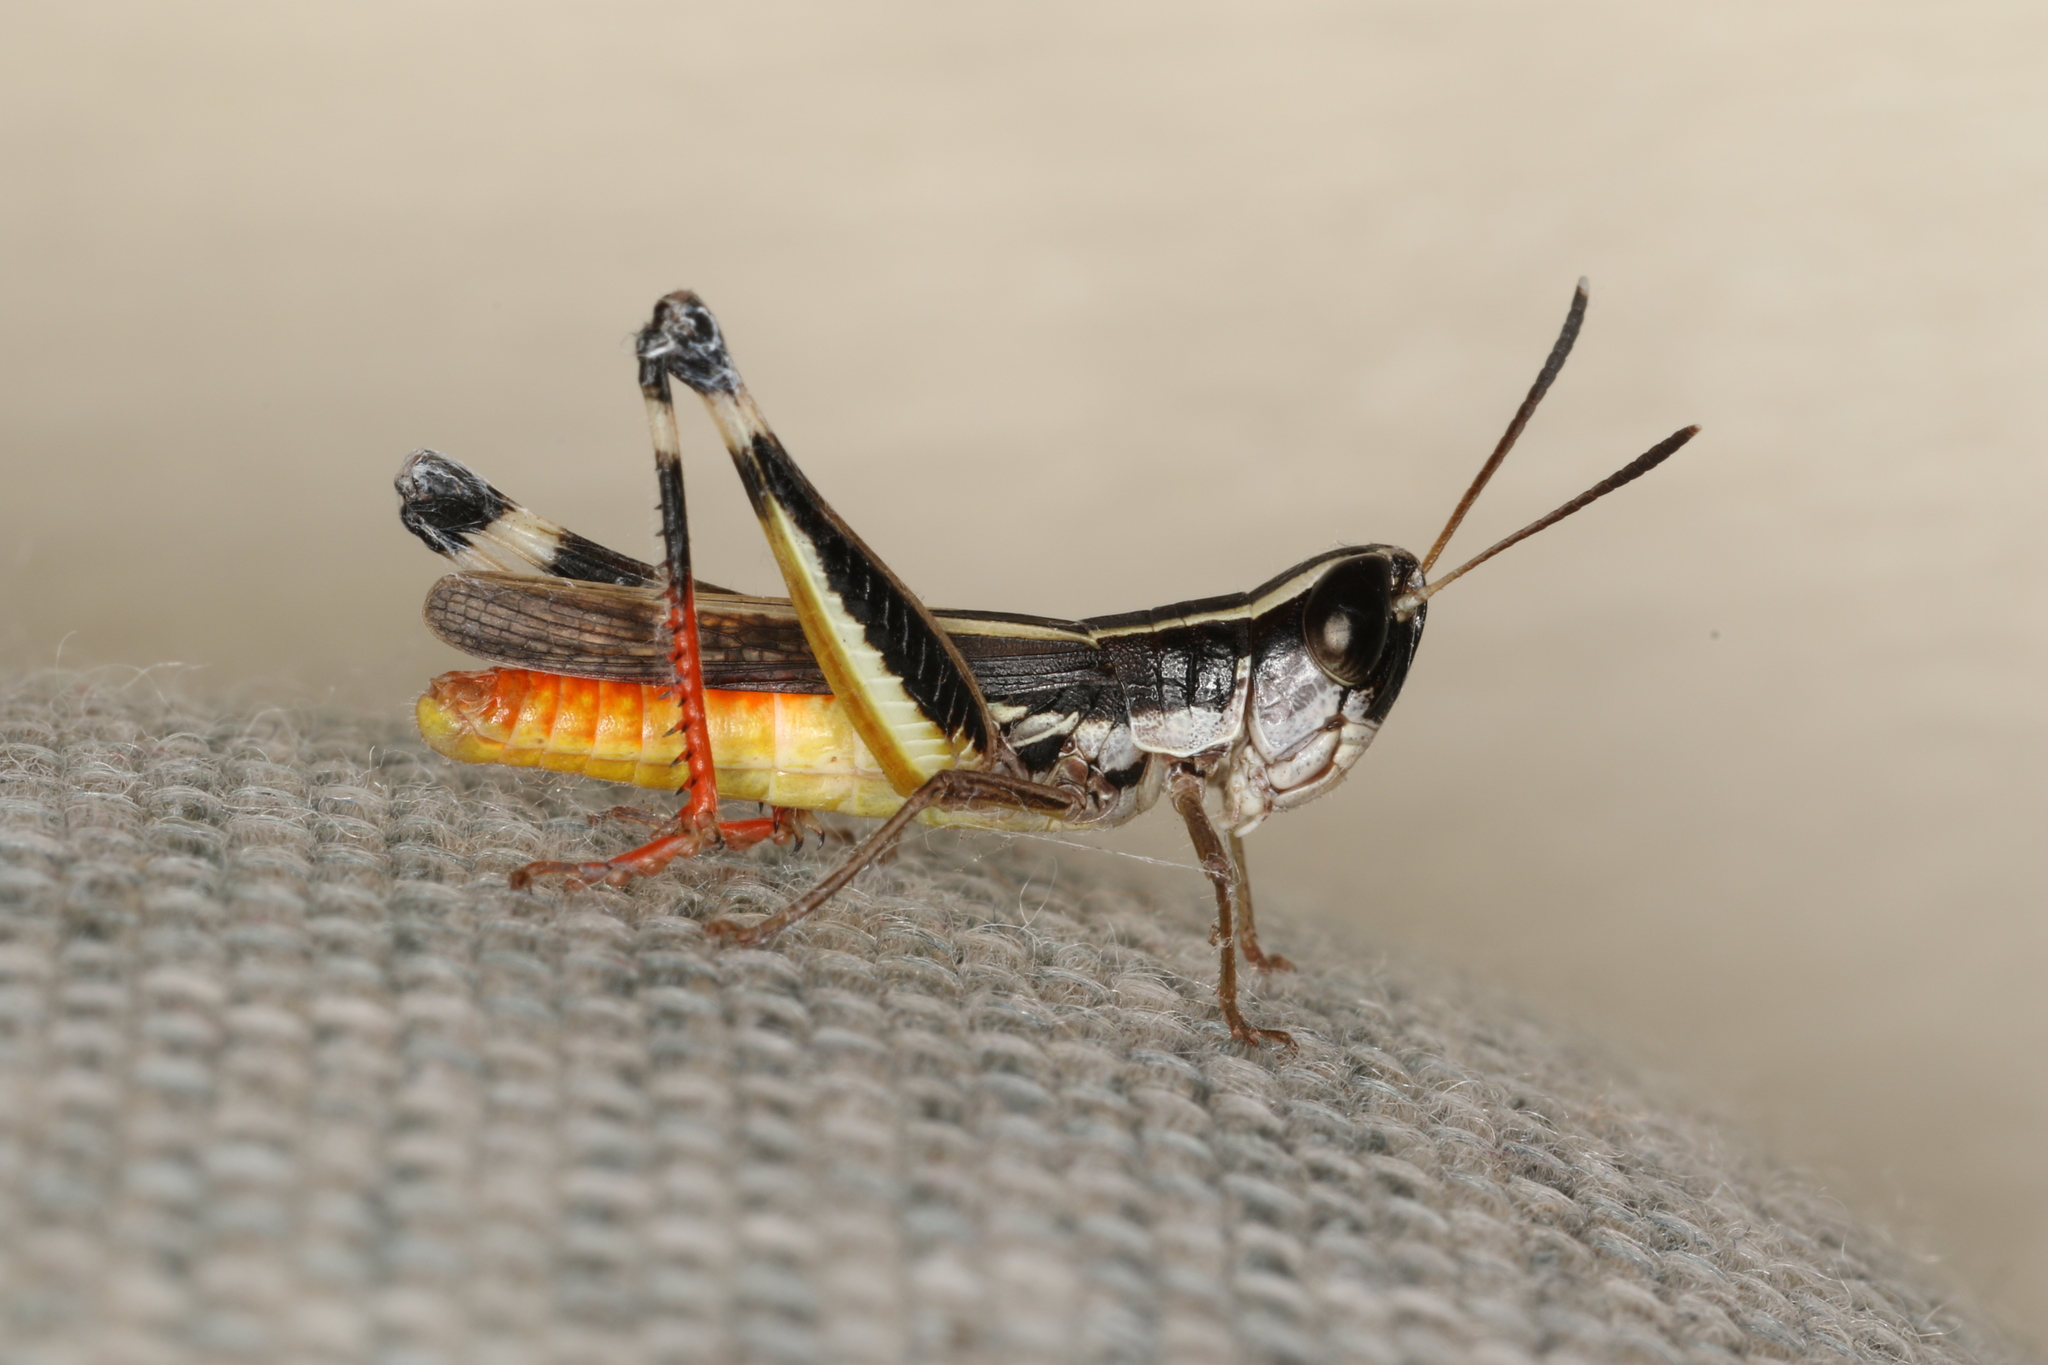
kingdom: Animalia
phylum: Arthropoda
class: Insecta
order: Orthoptera
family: Acrididae
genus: Macrotona
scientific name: Macrotona australis
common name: Common macrotona
